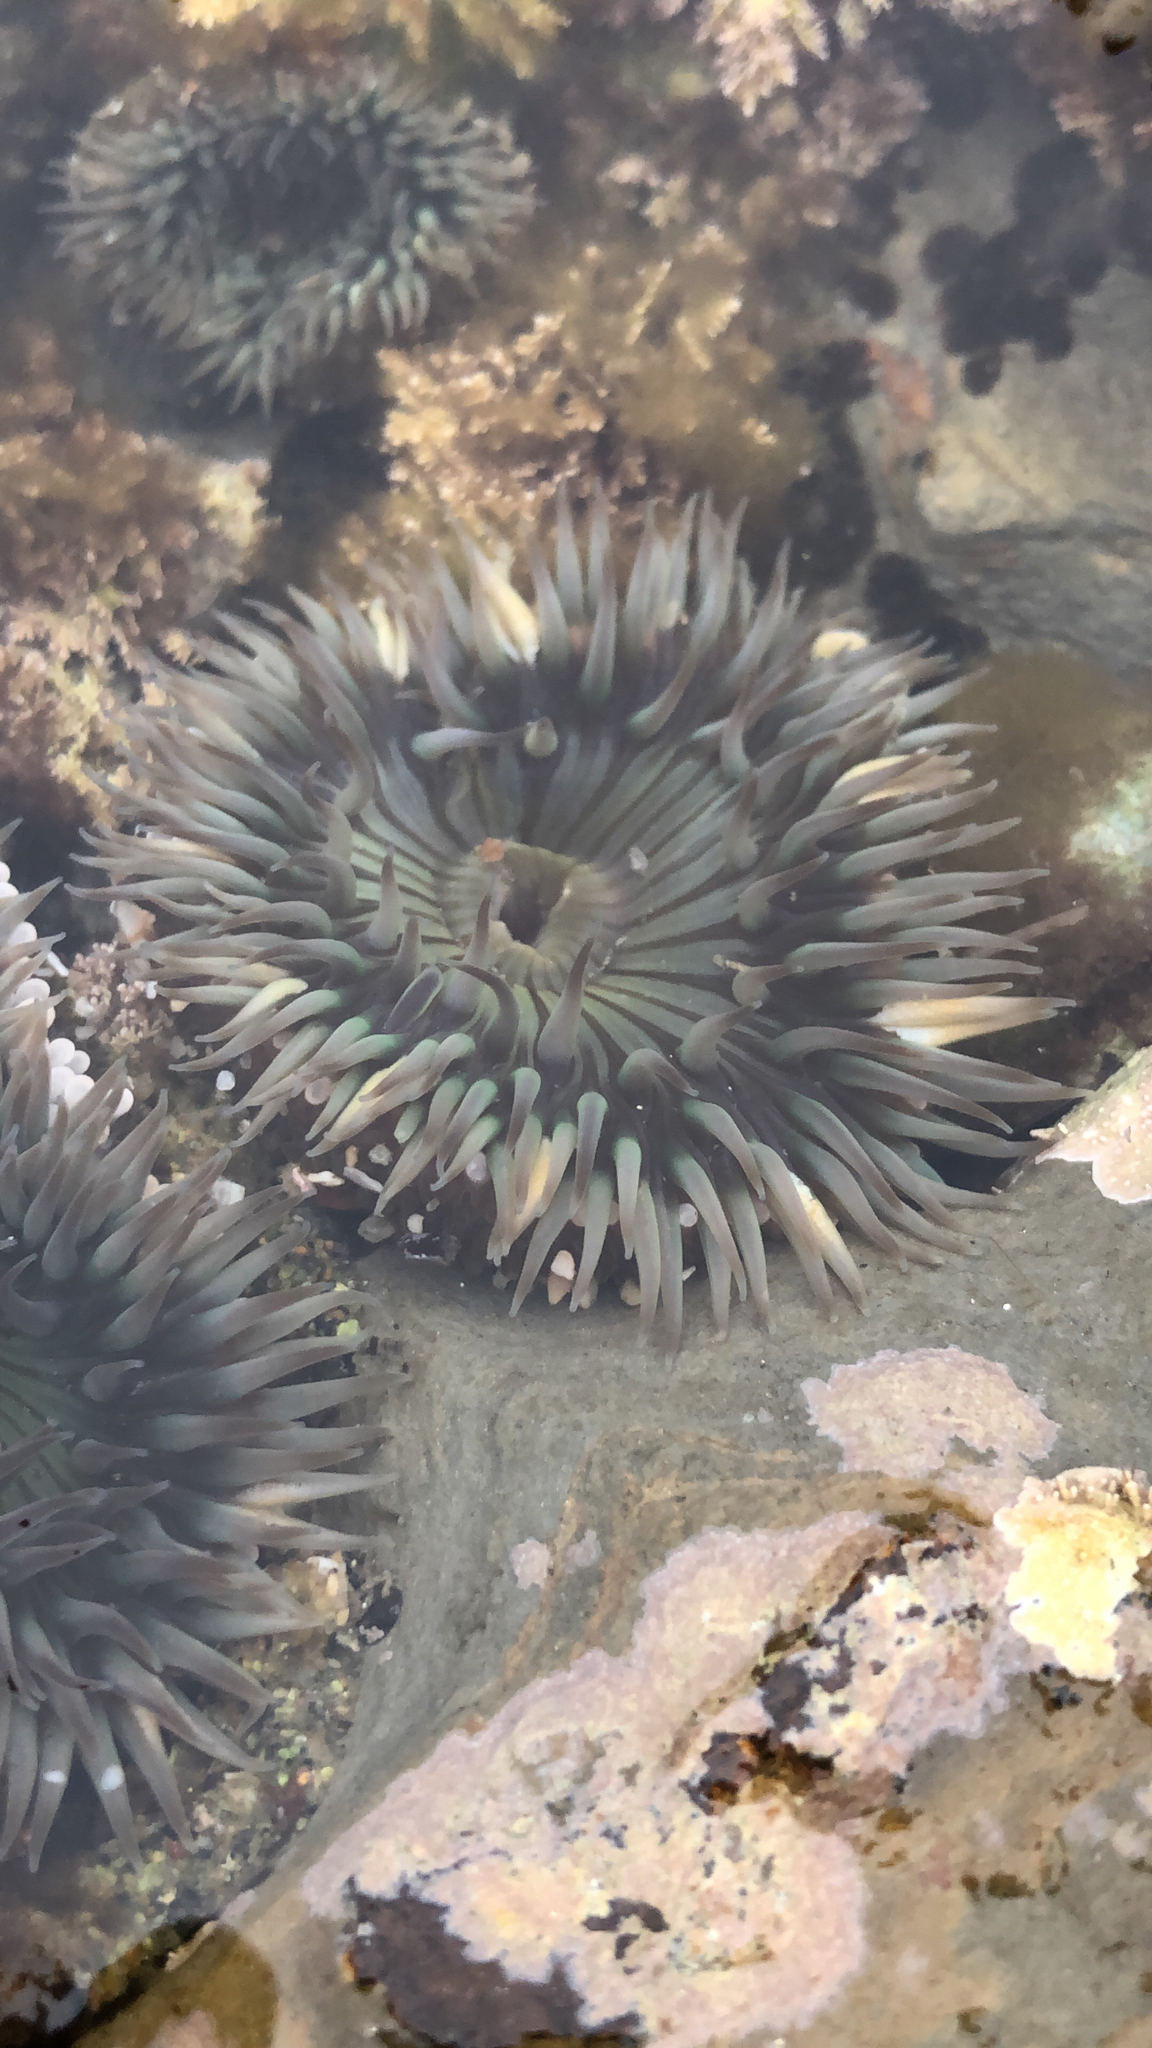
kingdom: Animalia
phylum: Cnidaria
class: Anthozoa
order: Actiniaria
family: Actiniidae
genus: Anthopleura
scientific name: Anthopleura sola
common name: Sun anemone
